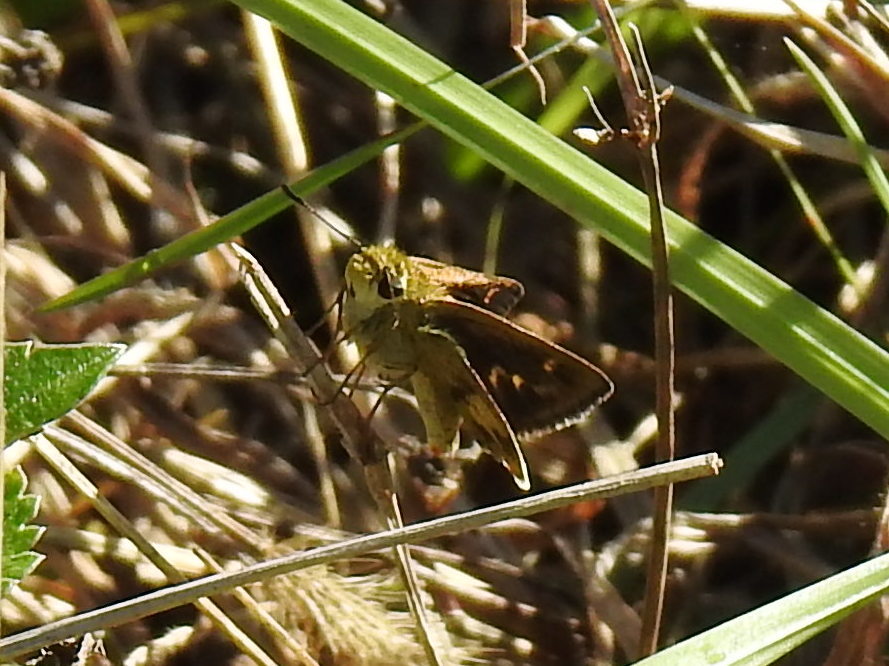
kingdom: Animalia
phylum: Arthropoda
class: Insecta
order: Lepidoptera
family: Hesperiidae
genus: Polites
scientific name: Polites vibex
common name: Whirlabout
